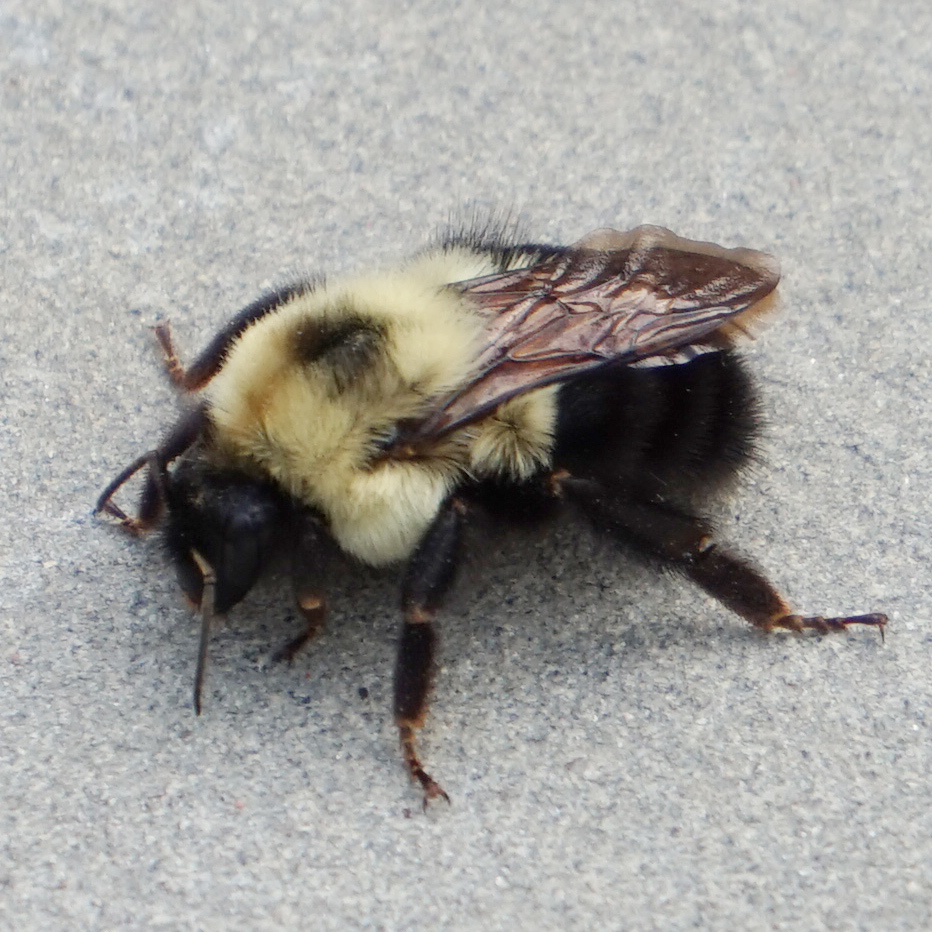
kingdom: Animalia
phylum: Arthropoda
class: Insecta
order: Hymenoptera
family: Apidae
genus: Bombus
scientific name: Bombus bimaculatus
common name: Two-spotted bumble bee
